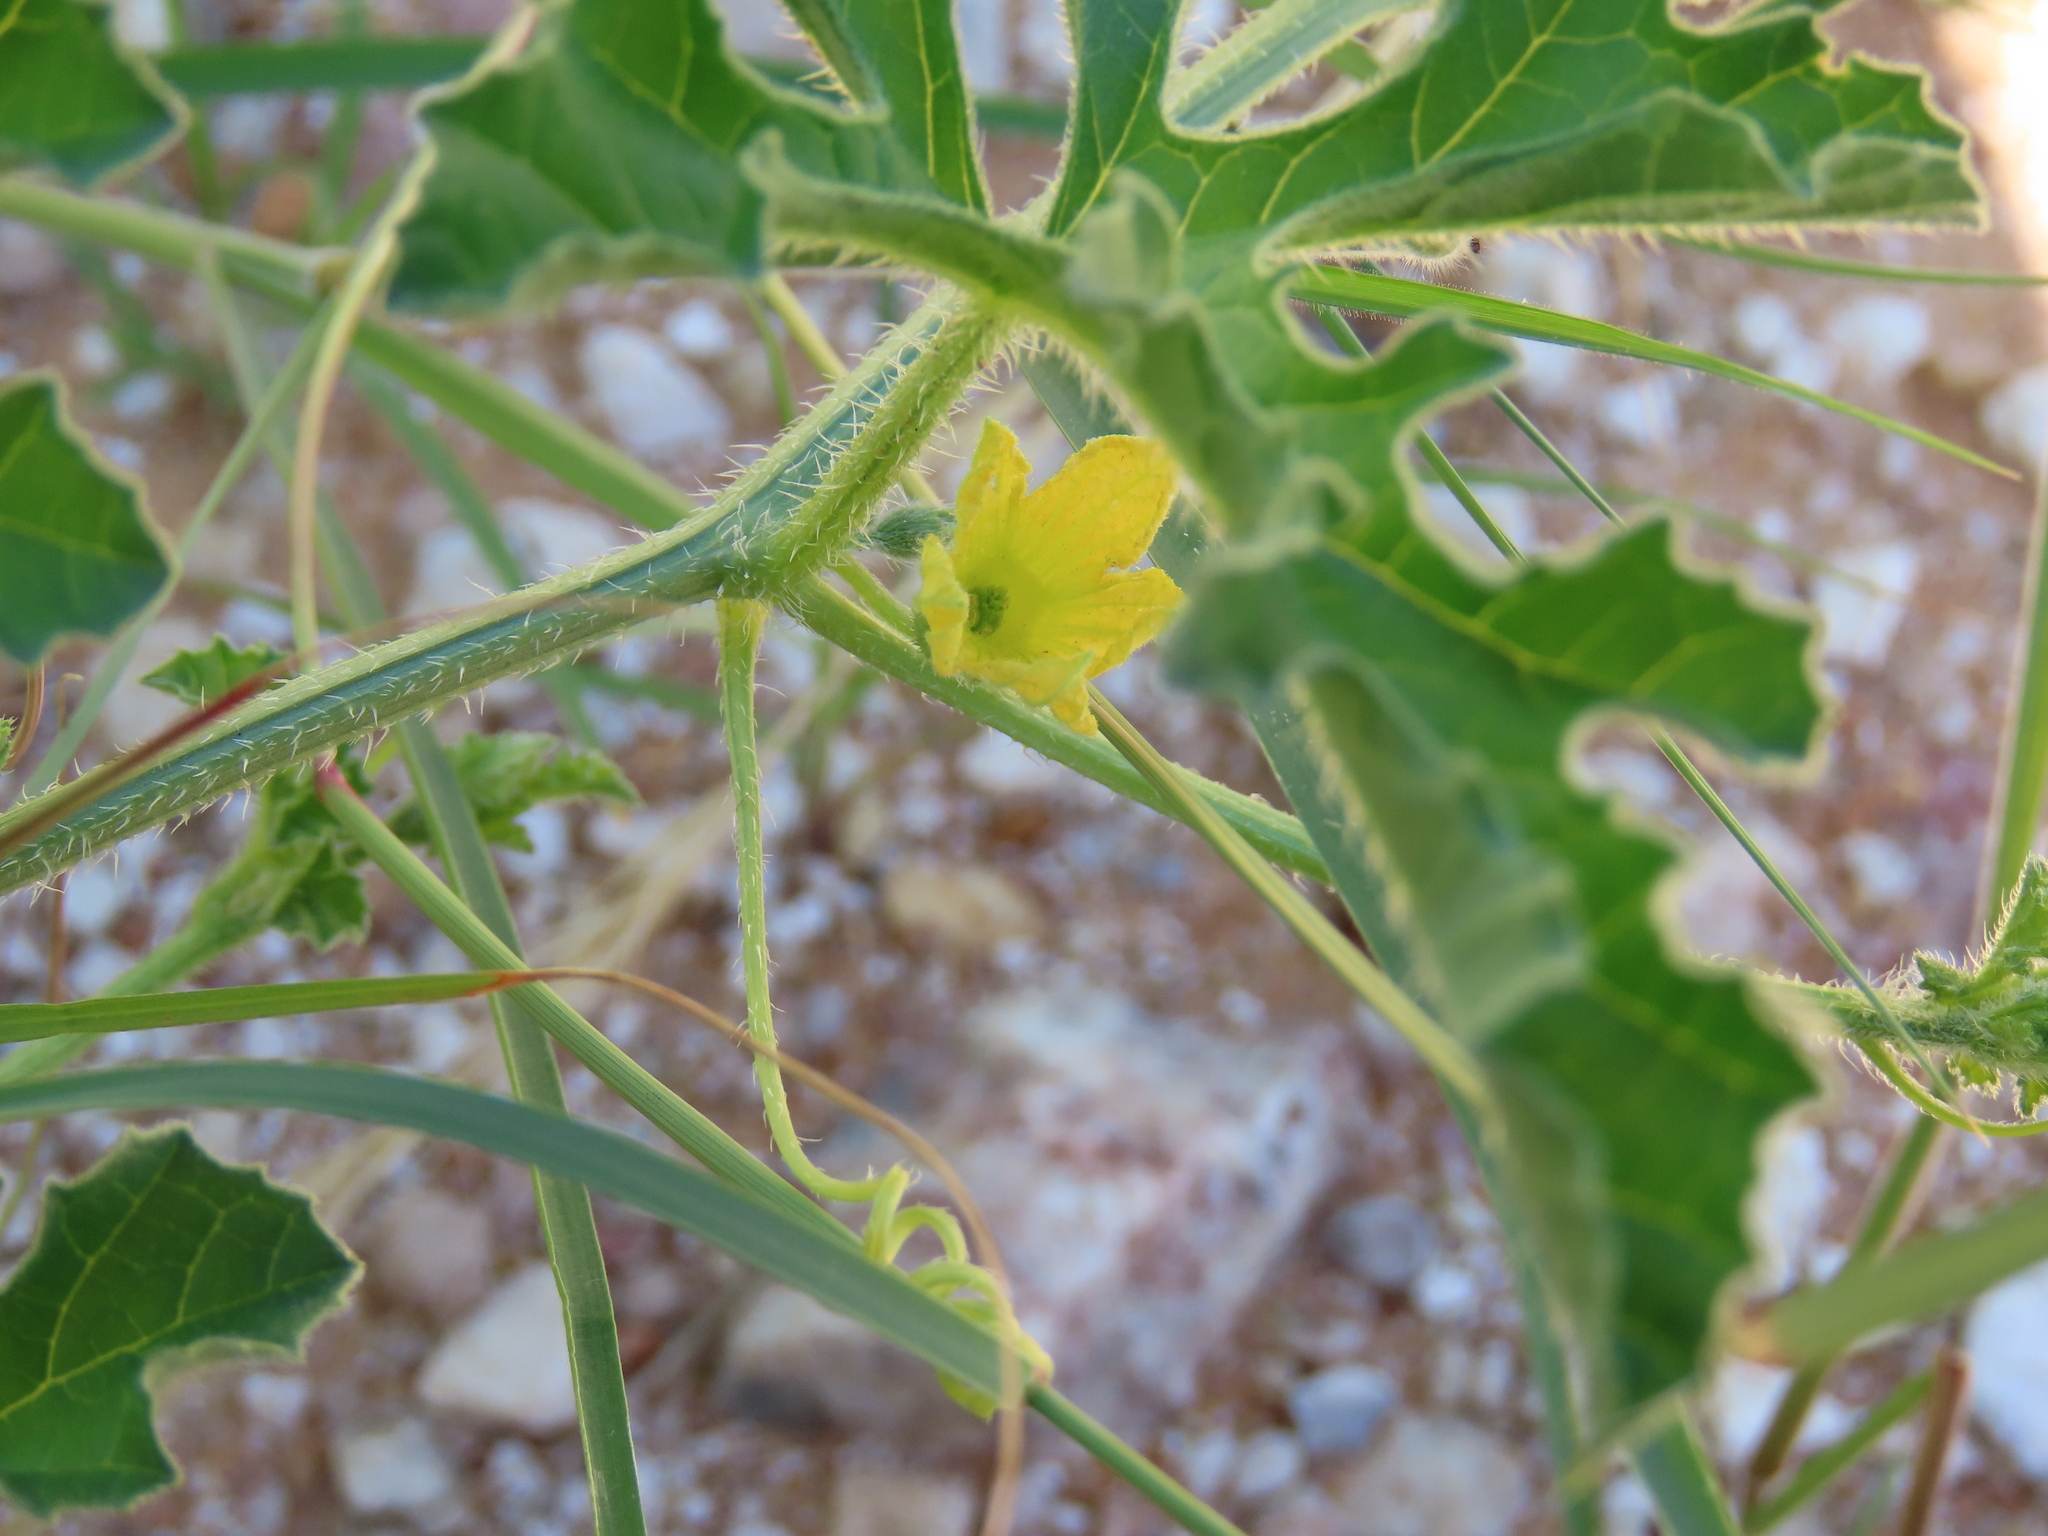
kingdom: Plantae
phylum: Tracheophyta
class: Magnoliopsida
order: Cucurbitales
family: Cucurbitaceae
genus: Cucumis
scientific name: Cucumis africanus
